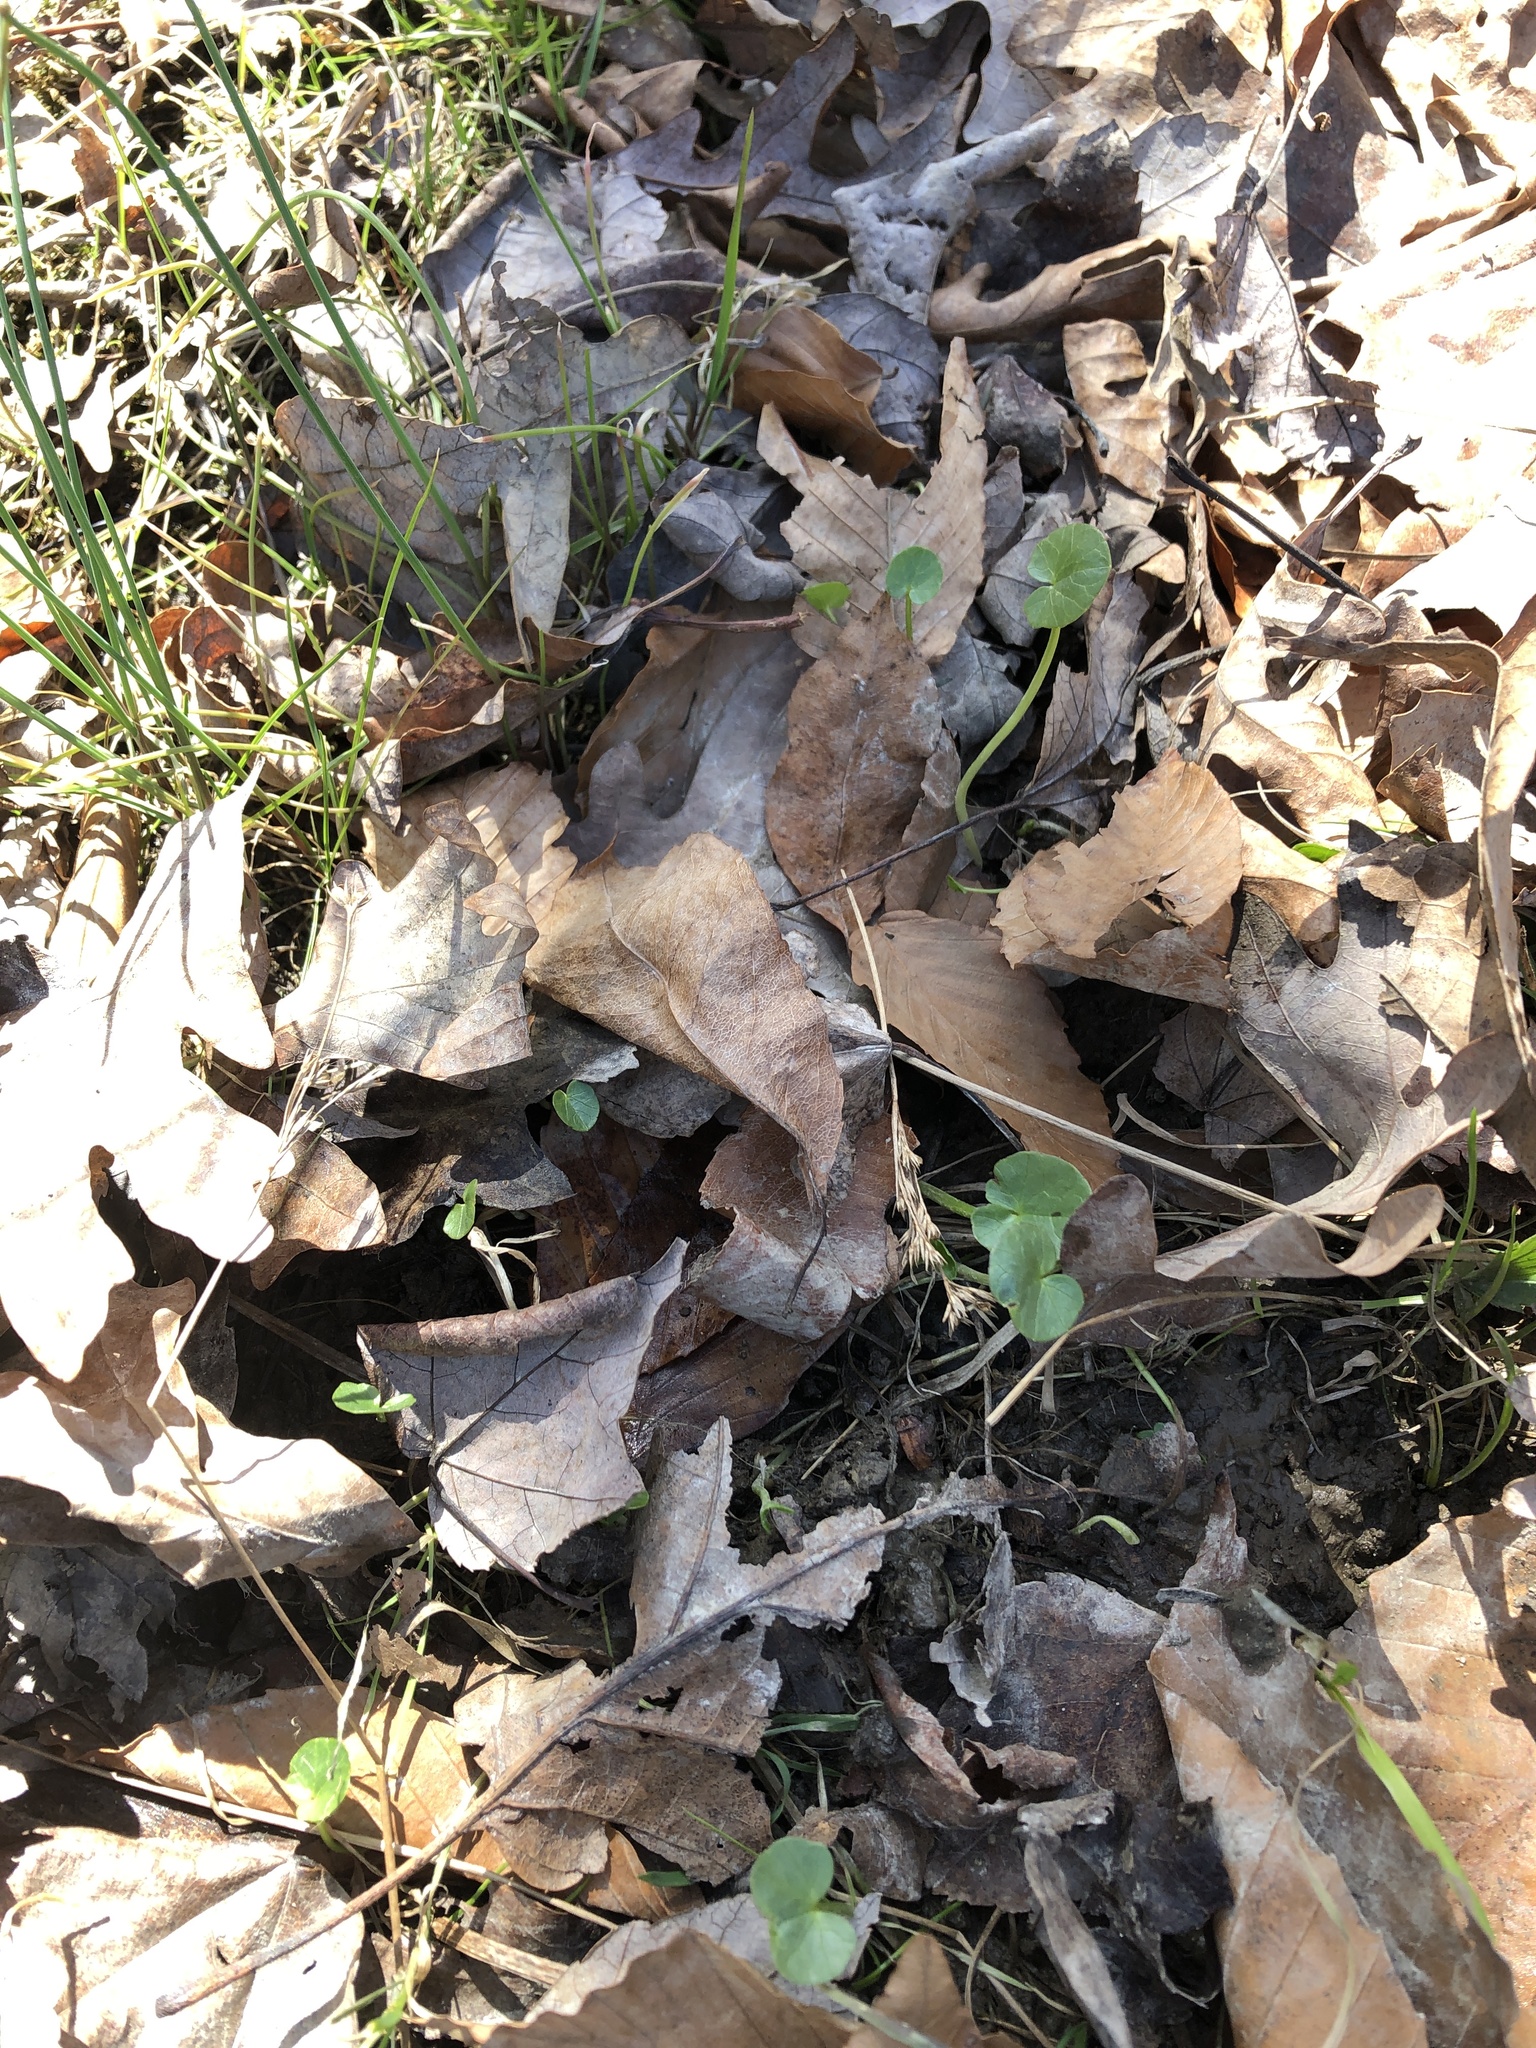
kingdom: Plantae
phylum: Tracheophyta
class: Magnoliopsida
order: Ranunculales
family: Ranunculaceae
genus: Ficaria
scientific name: Ficaria verna
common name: Lesser celandine
